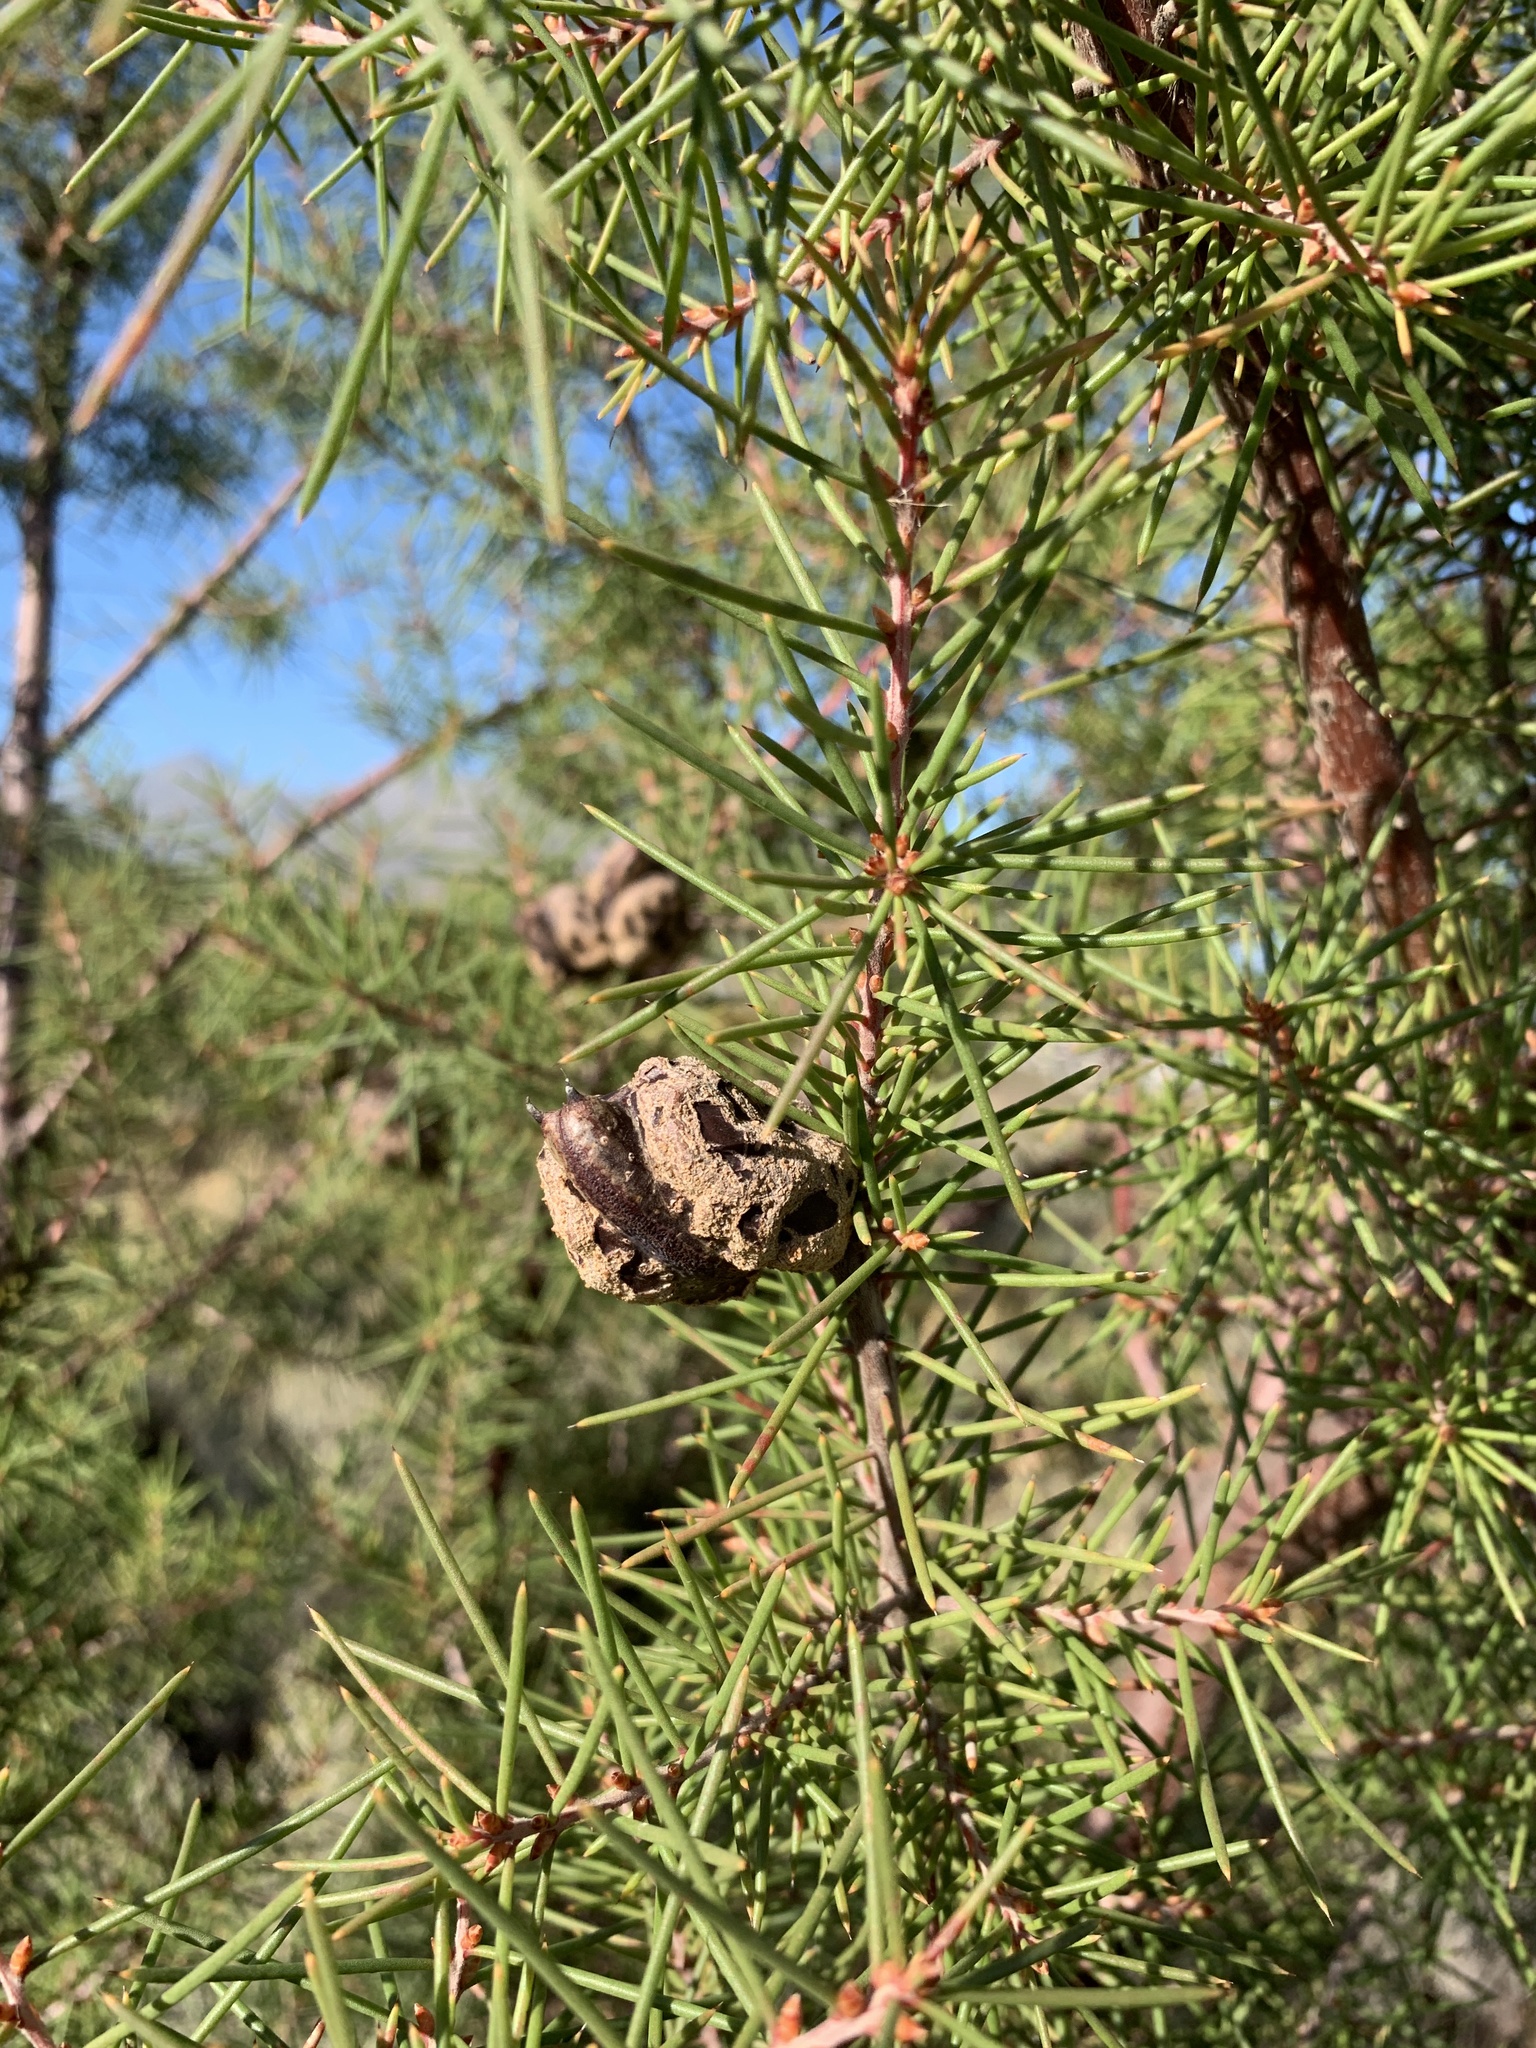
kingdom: Plantae
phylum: Tracheophyta
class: Magnoliopsida
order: Proteales
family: Proteaceae
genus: Hakea
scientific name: Hakea sericea
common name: Needle bush
